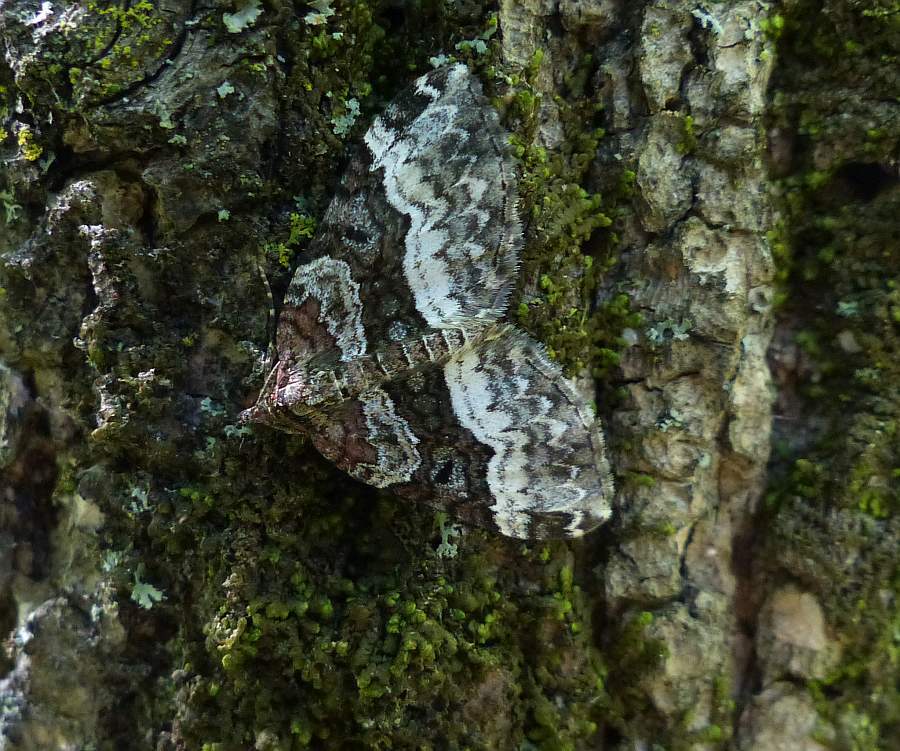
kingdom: Animalia
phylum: Arthropoda
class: Insecta
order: Lepidoptera
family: Geometridae
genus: Euphyia
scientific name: Euphyia intermediata
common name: Sharp-angled carpet
